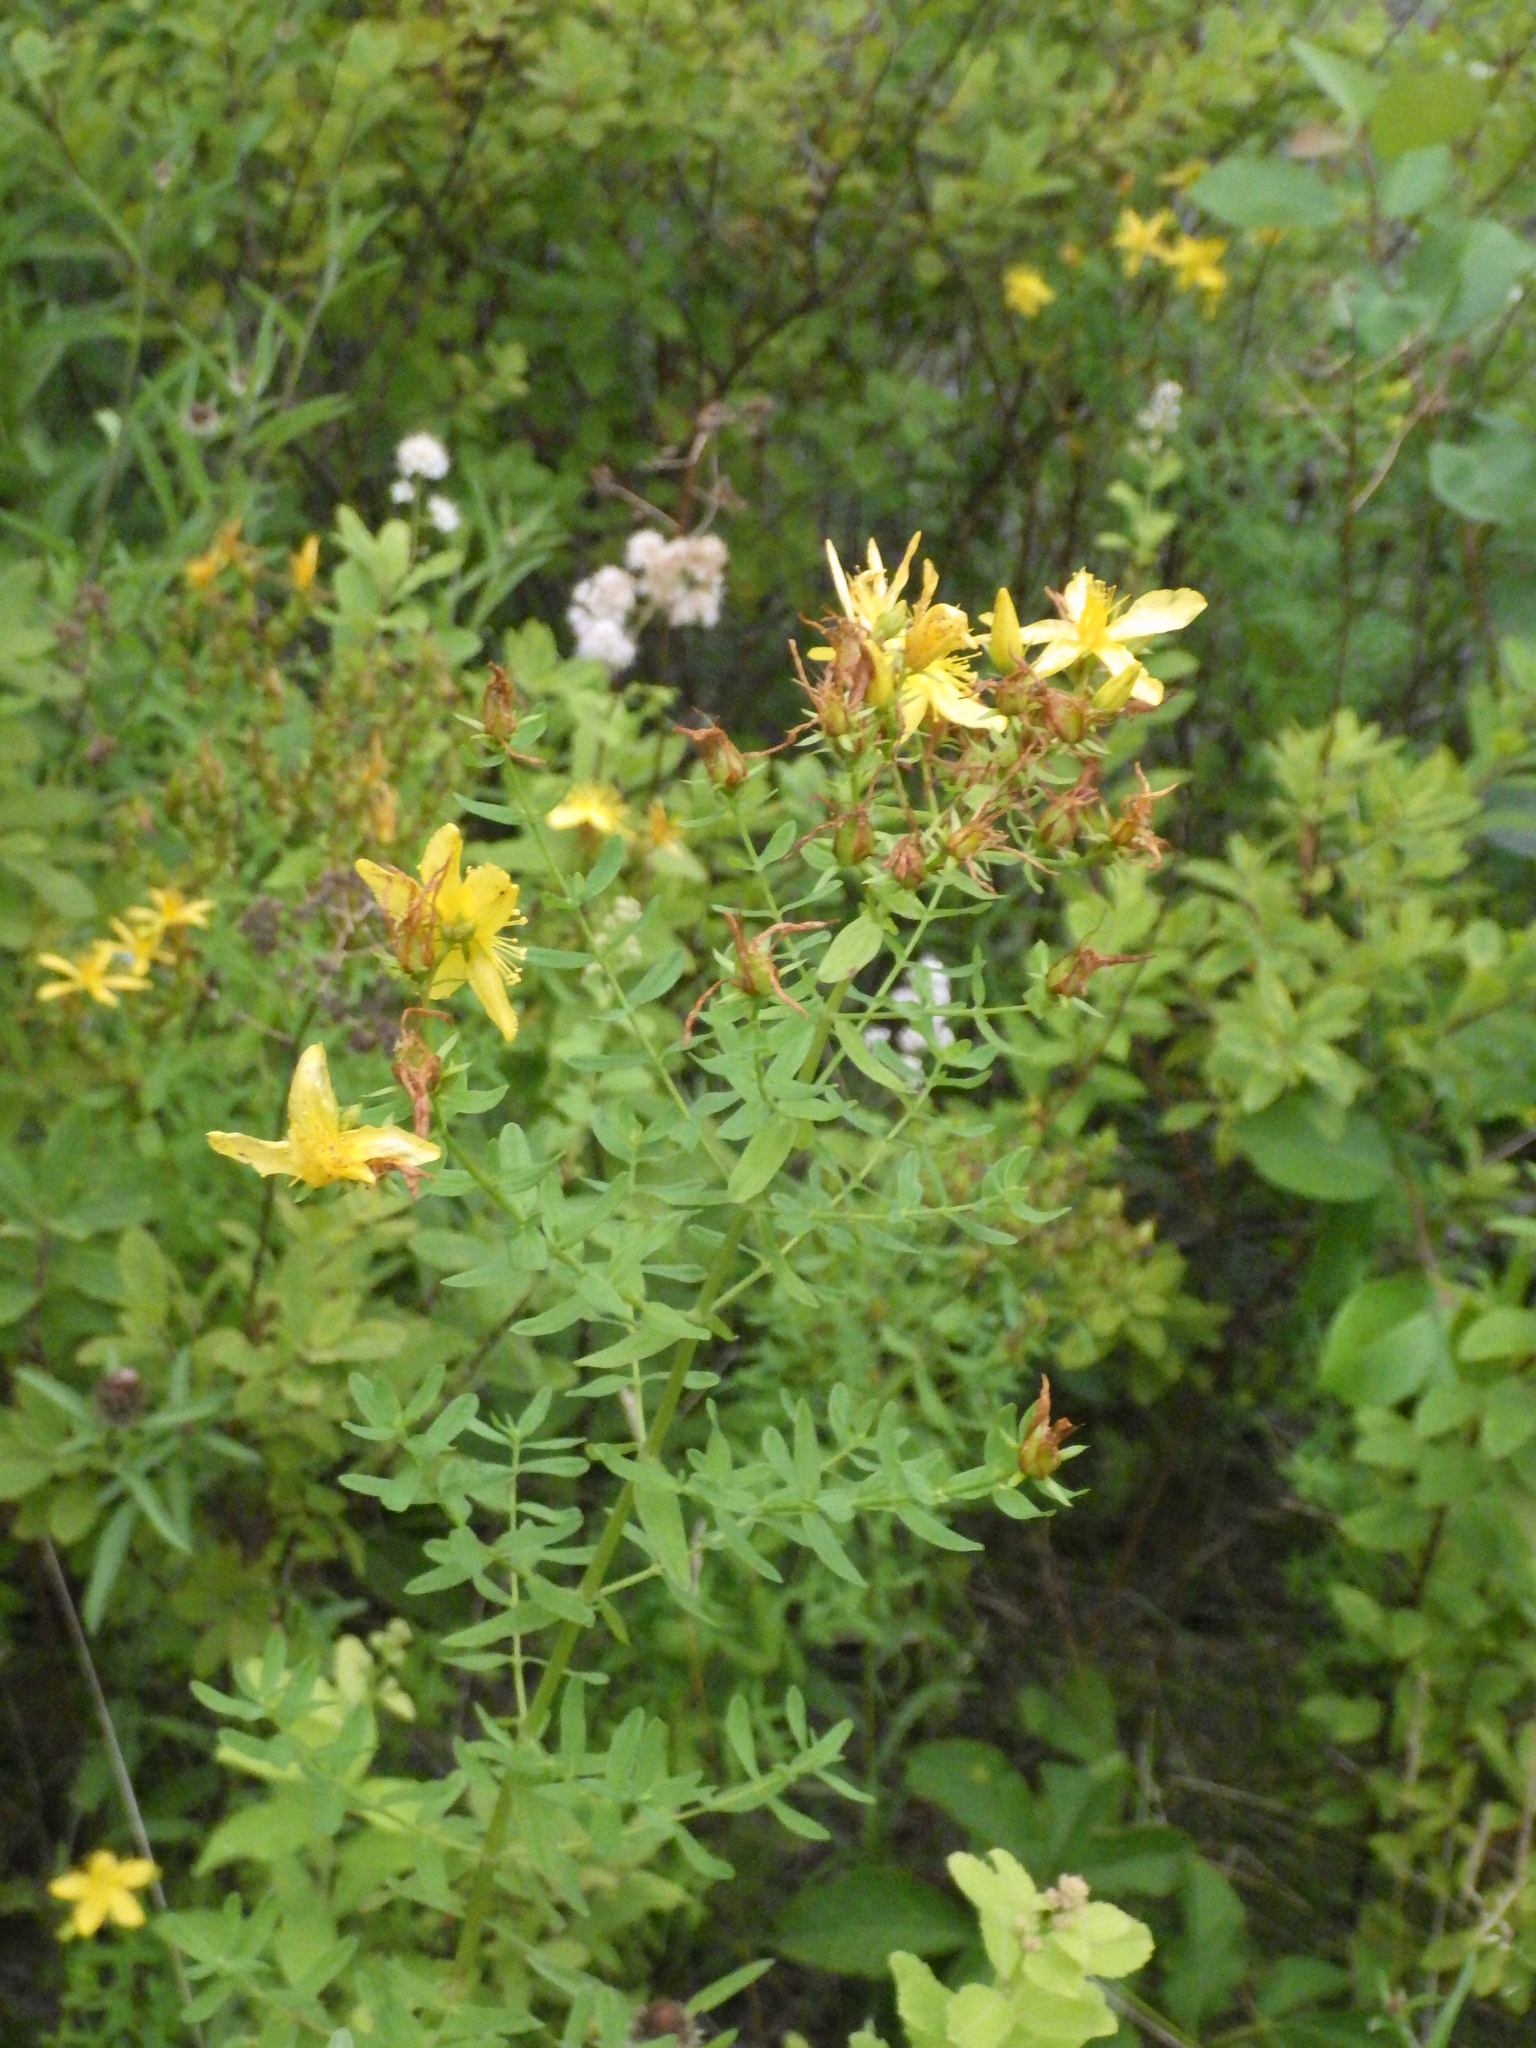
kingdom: Plantae
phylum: Tracheophyta
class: Magnoliopsida
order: Malpighiales
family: Hypericaceae
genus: Hypericum
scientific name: Hypericum perforatum
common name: Common st. johnswort
